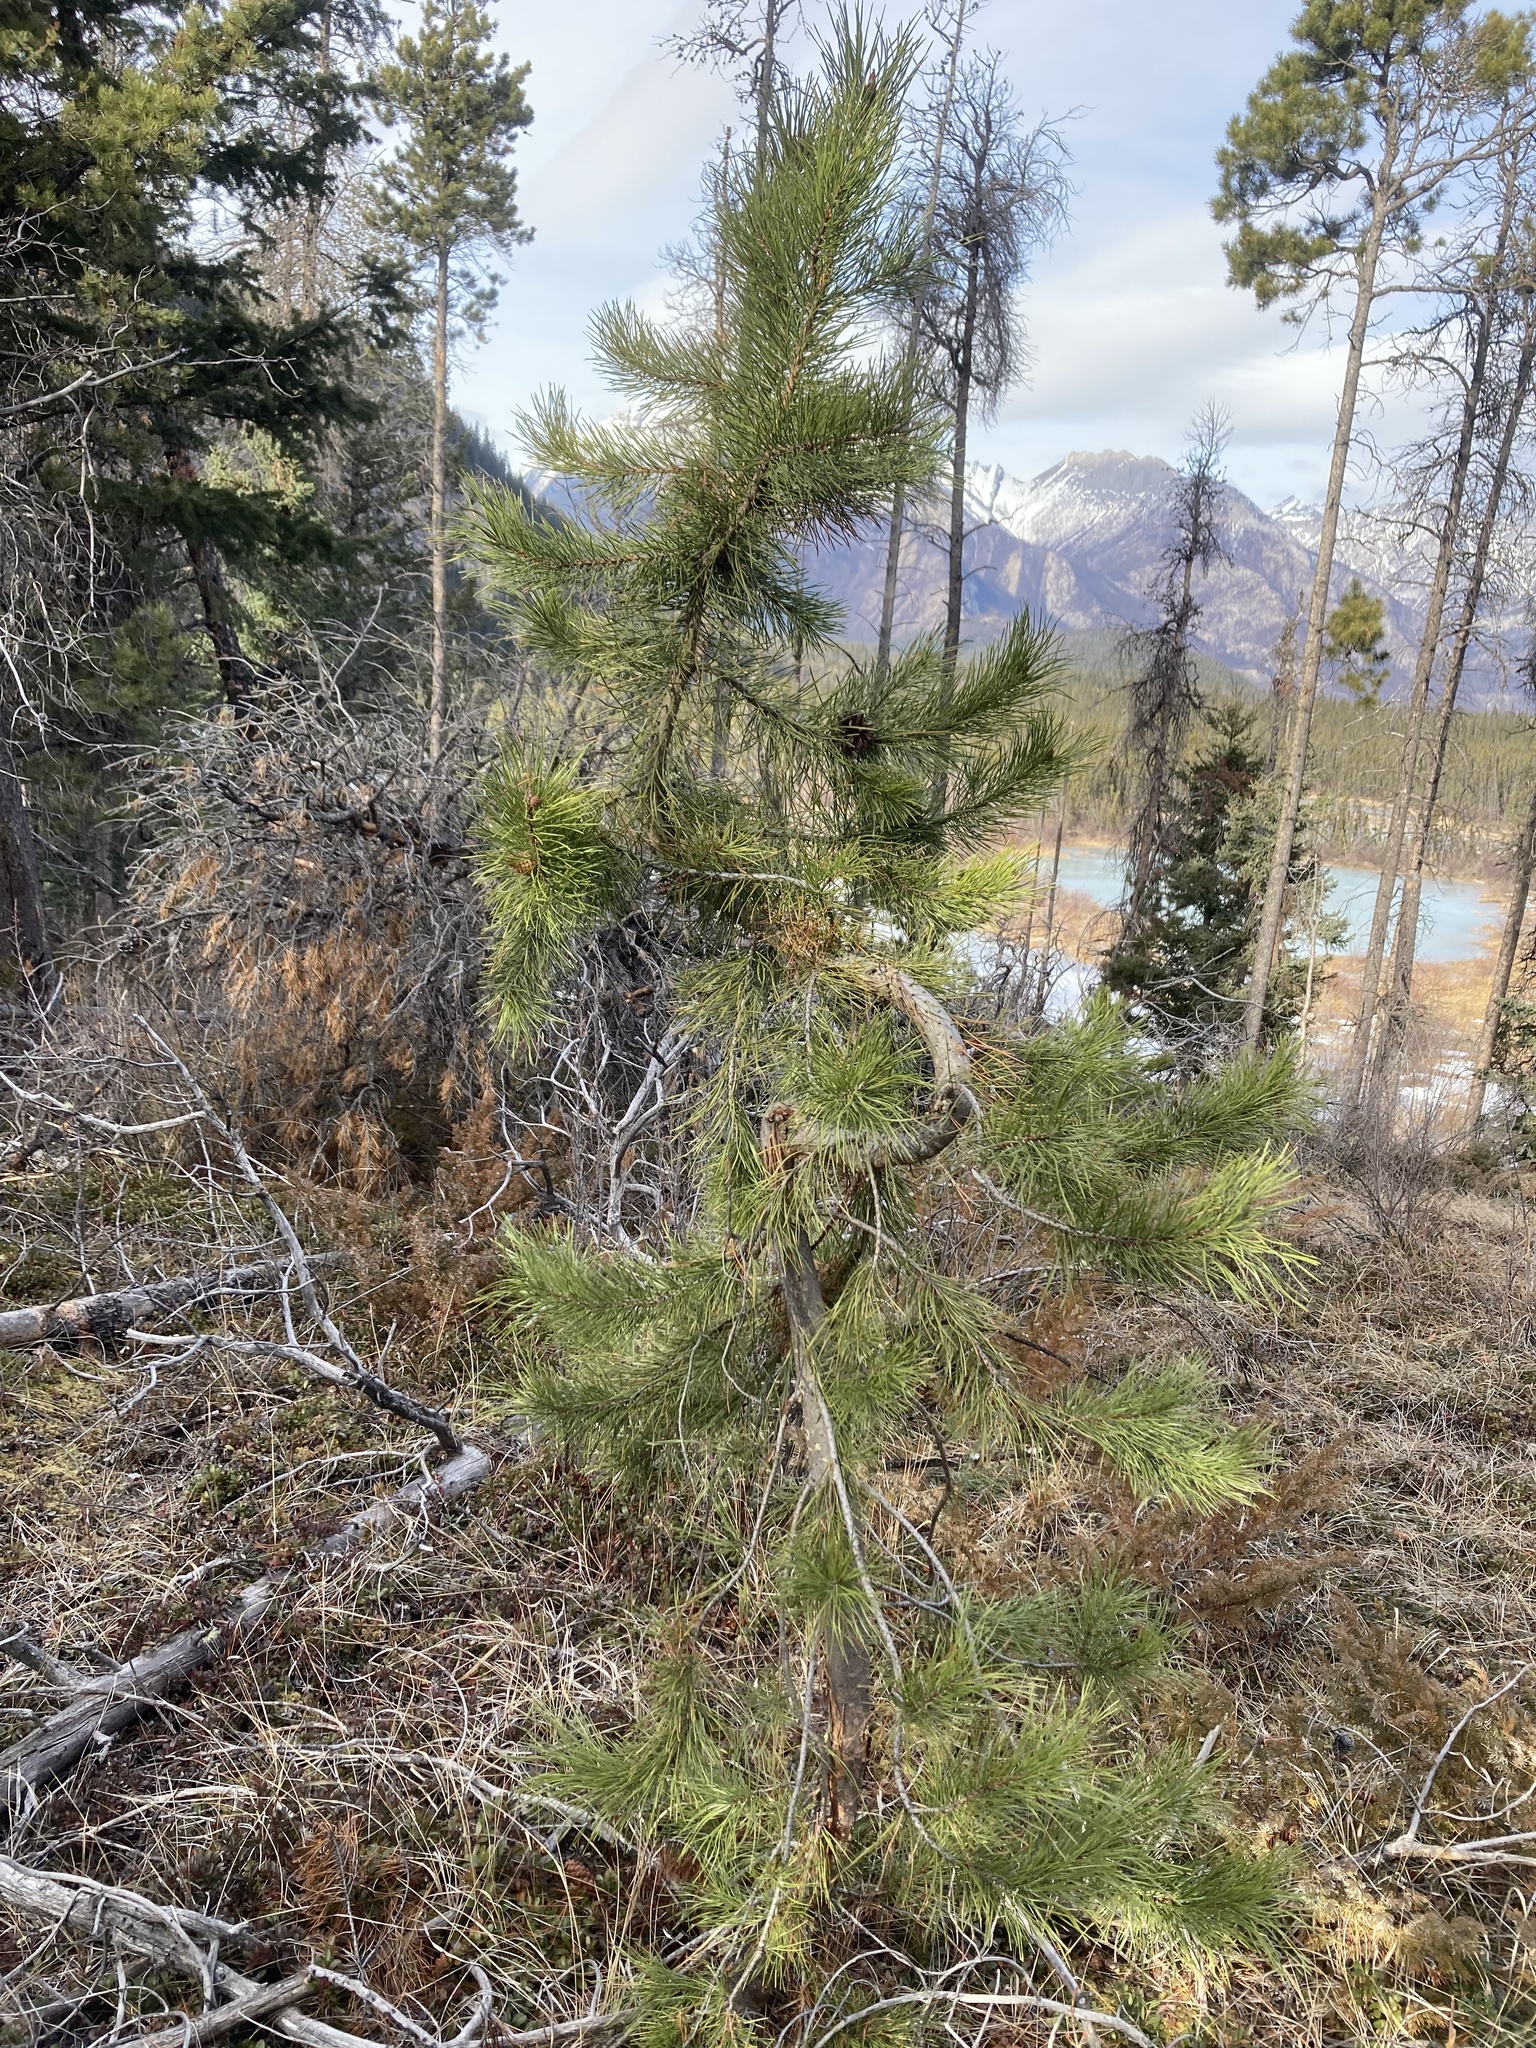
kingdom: Plantae
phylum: Tracheophyta
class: Pinopsida
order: Pinales
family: Pinaceae
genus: Pinus
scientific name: Pinus contorta
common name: Lodgepole pine
